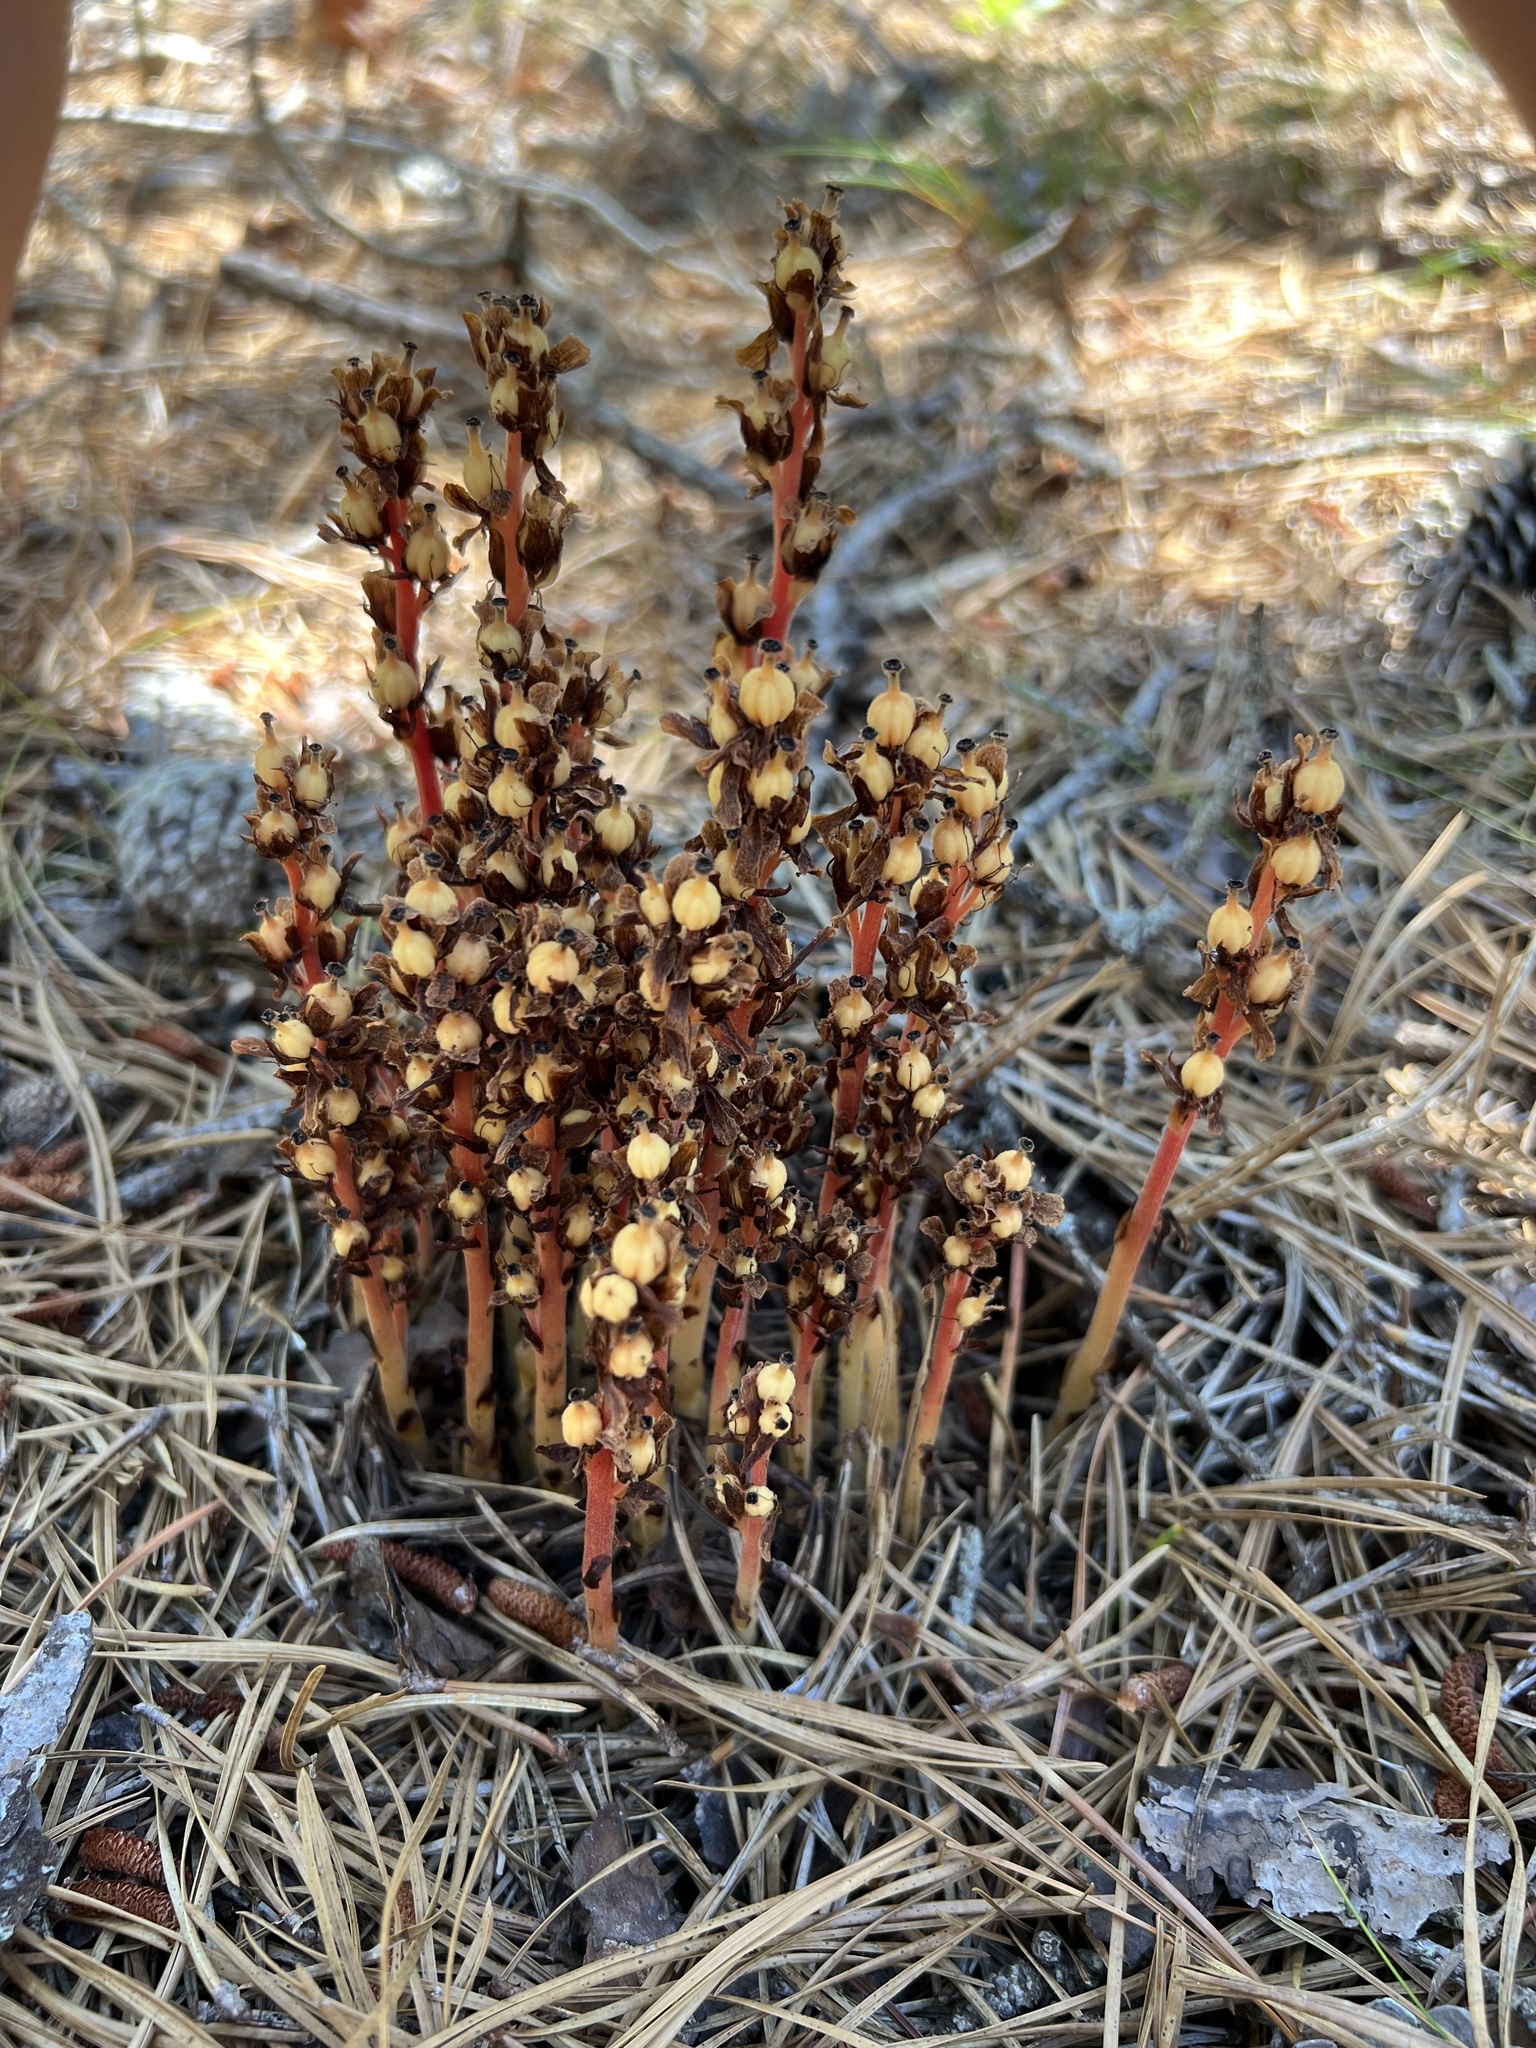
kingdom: Plantae
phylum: Tracheophyta
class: Magnoliopsida
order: Ericales
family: Ericaceae
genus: Hypopitys
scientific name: Hypopitys monotropa
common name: Yellow bird's-nest
